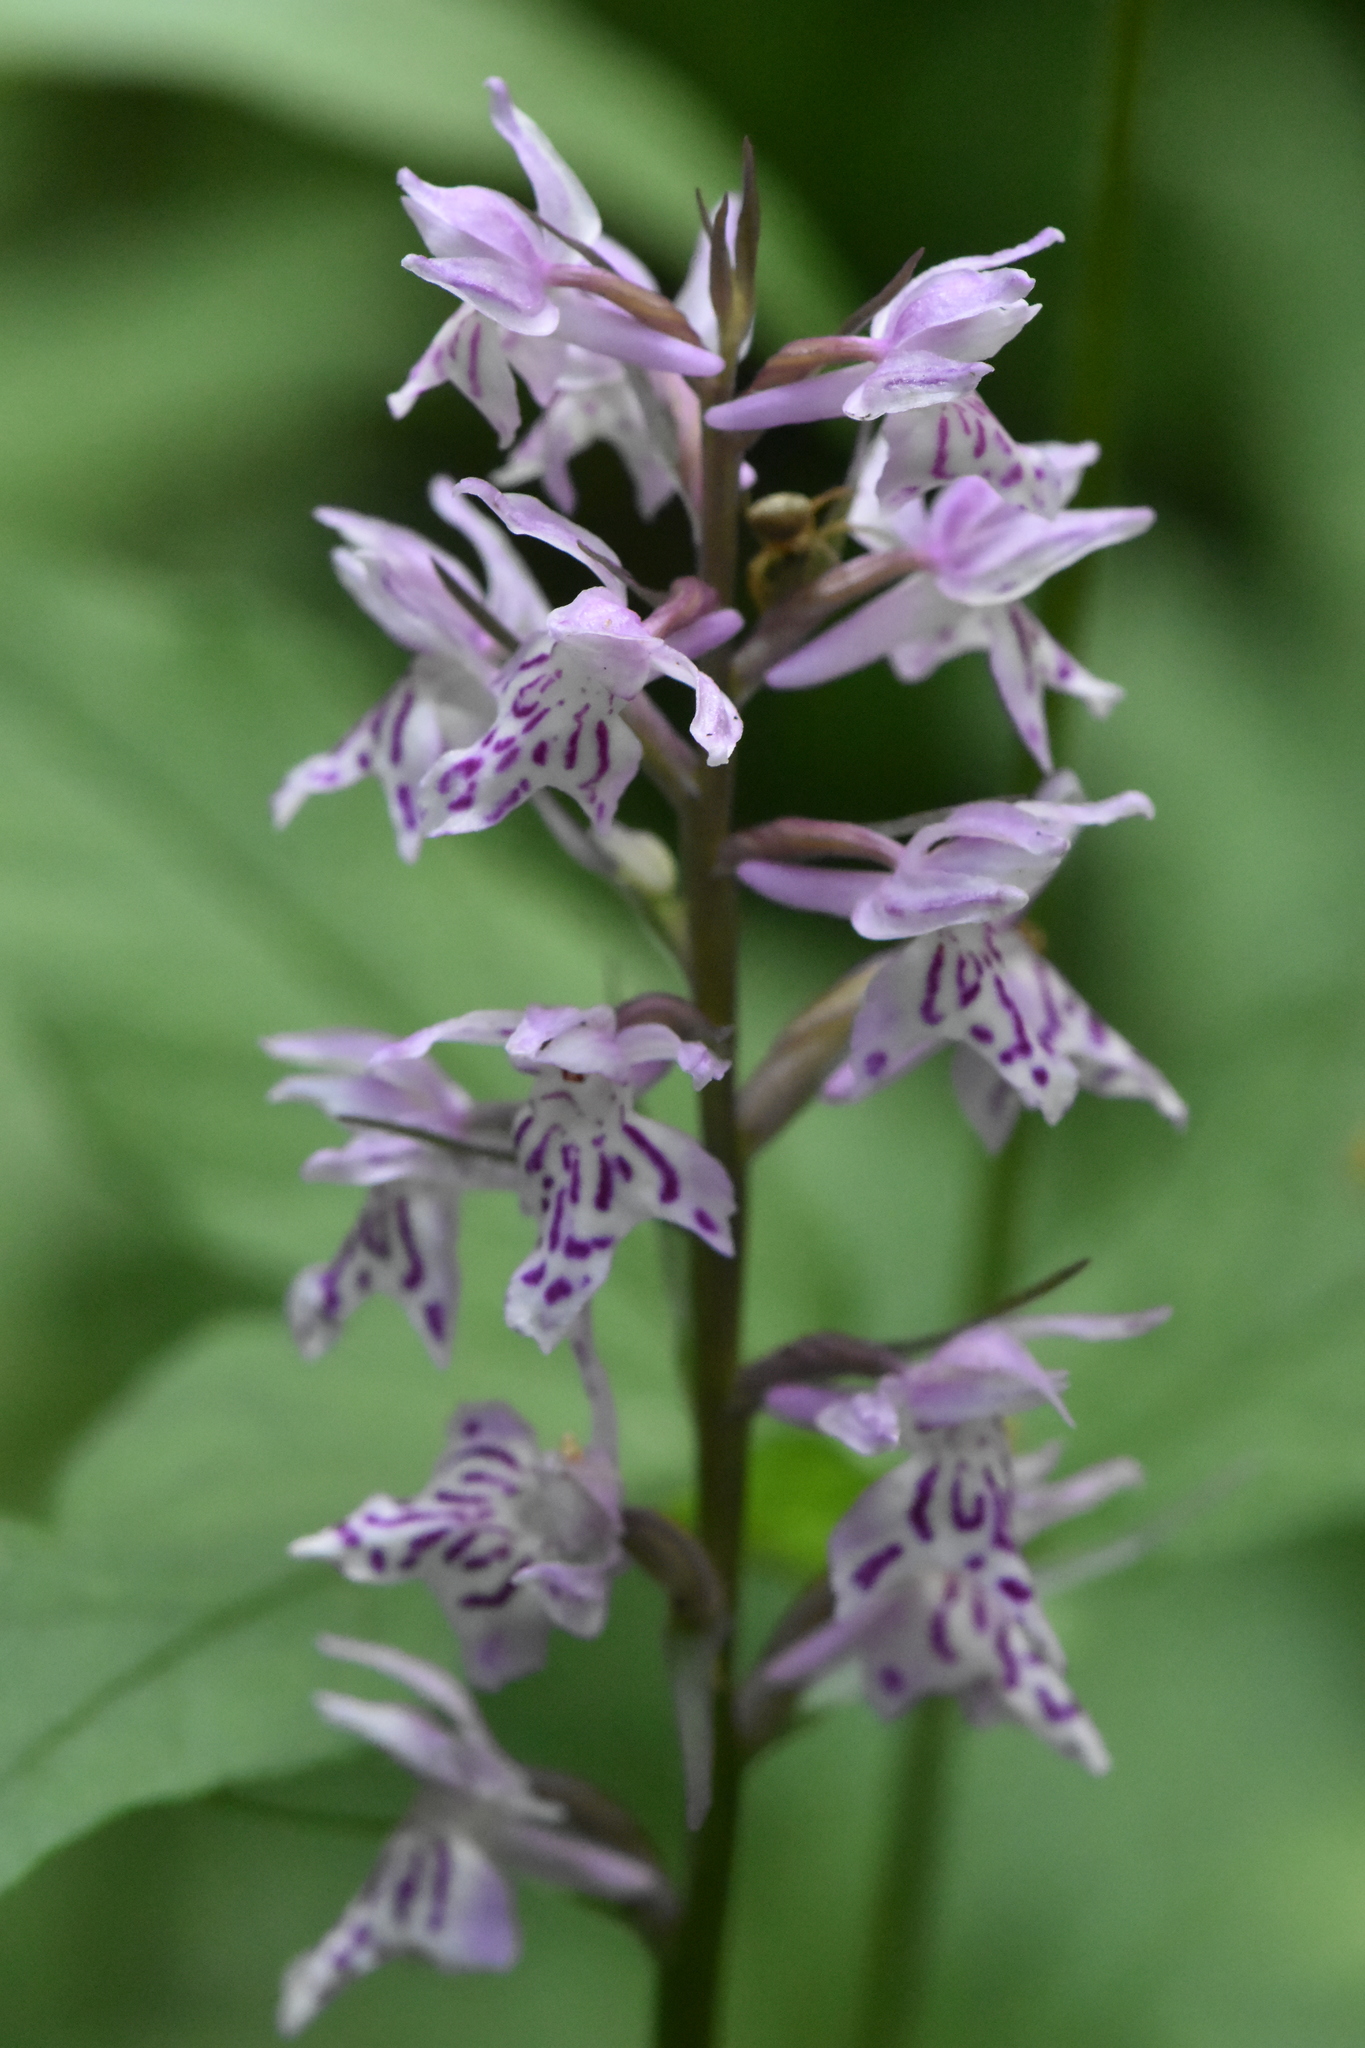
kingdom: Plantae
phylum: Tracheophyta
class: Liliopsida
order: Asparagales
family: Orchidaceae
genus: Dactylorhiza
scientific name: Dactylorhiza maculata
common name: Heath spotted-orchid
